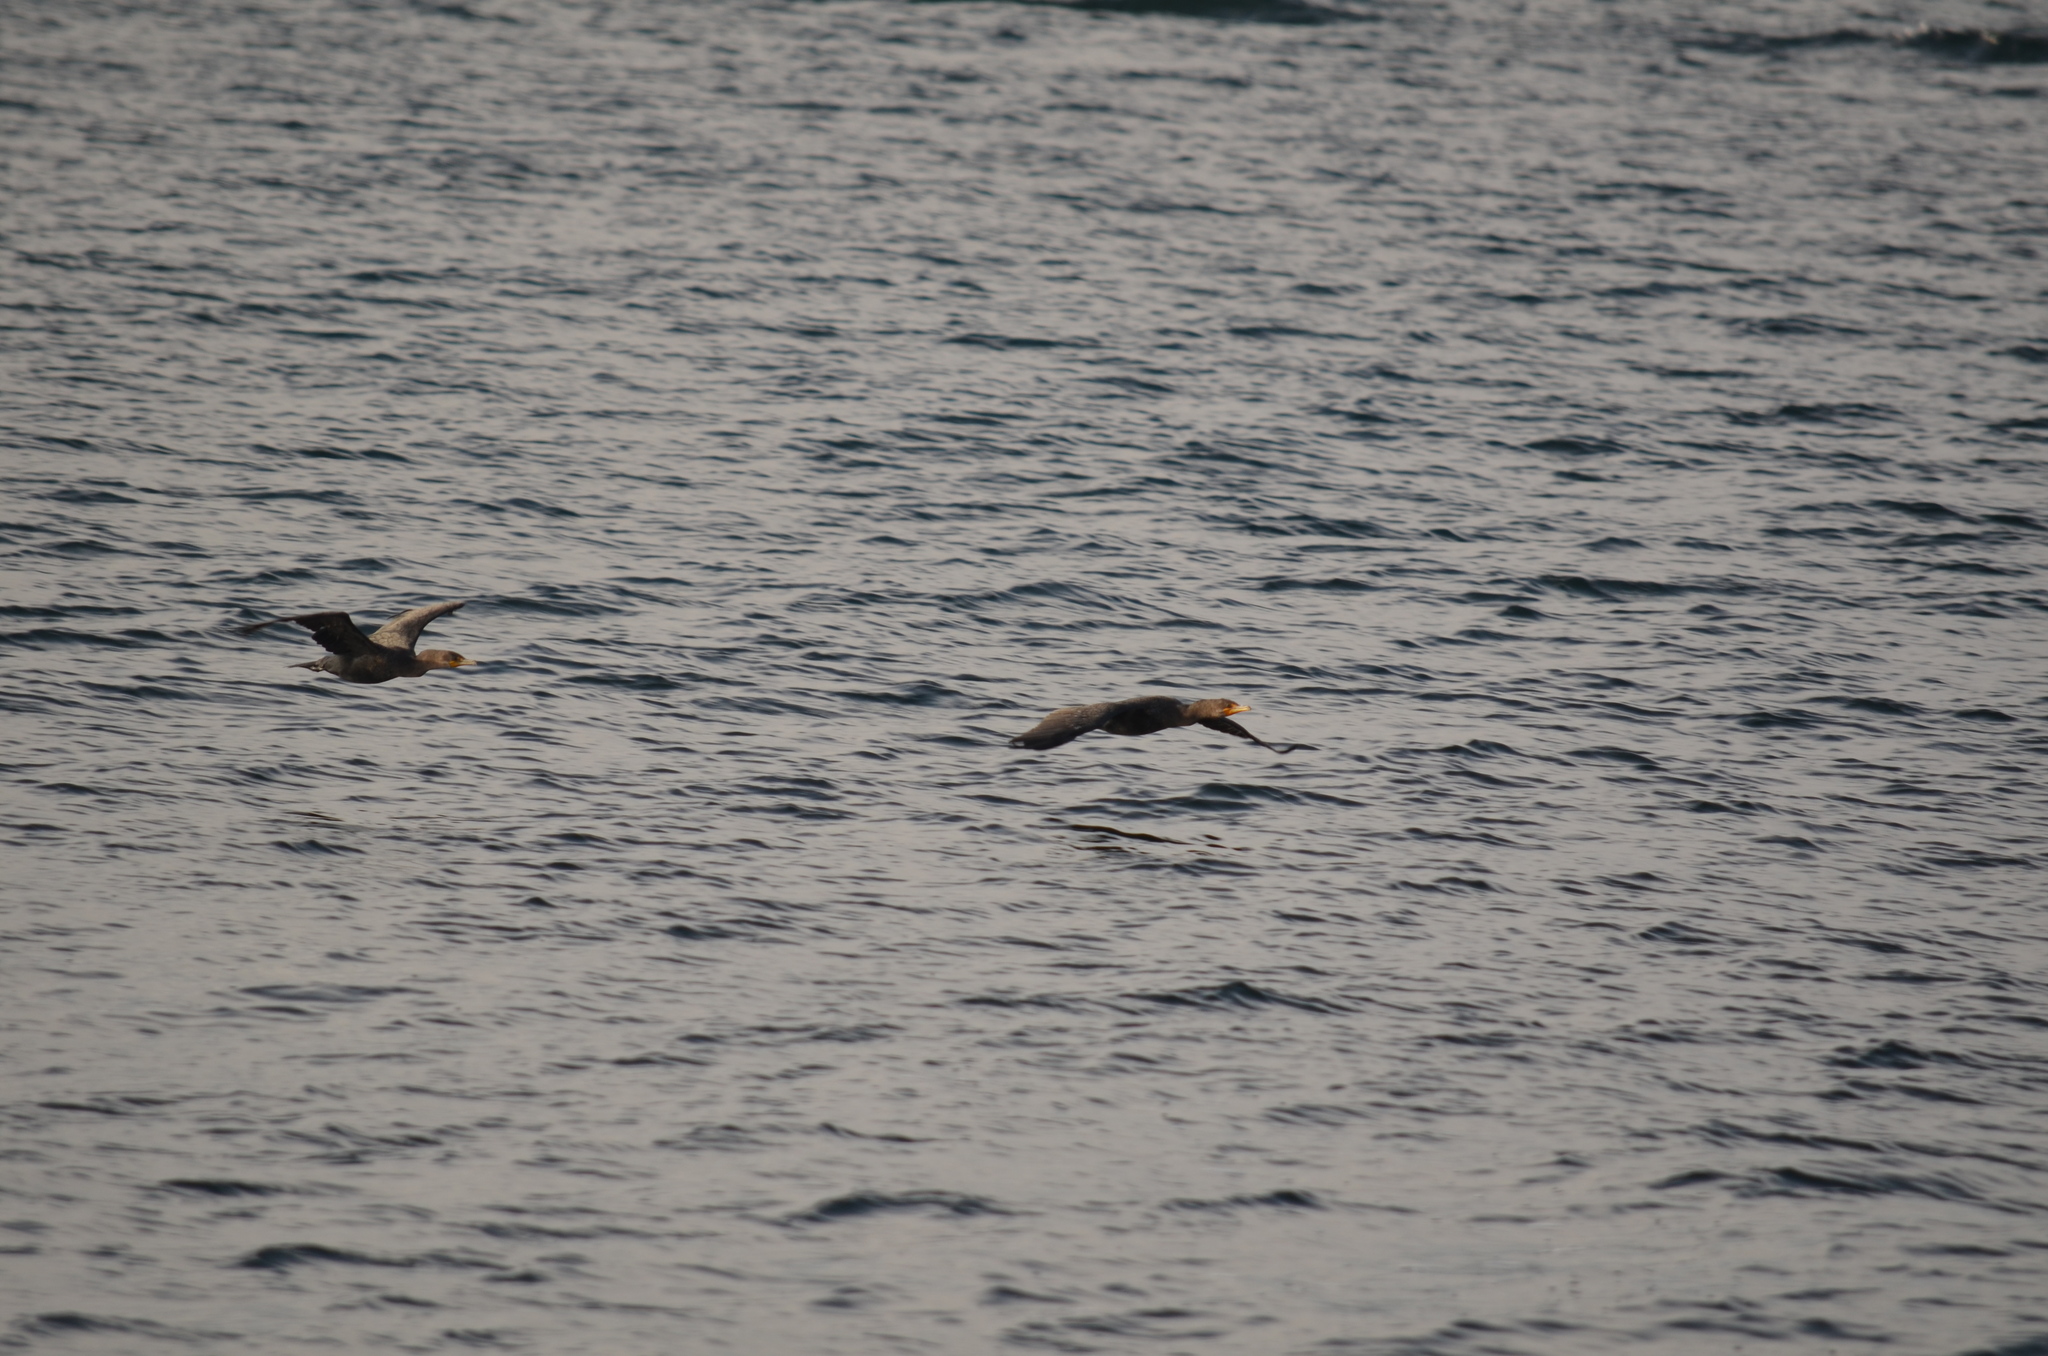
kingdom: Animalia
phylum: Chordata
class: Aves
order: Suliformes
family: Phalacrocoracidae
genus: Phalacrocorax
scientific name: Phalacrocorax auritus
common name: Double-crested cormorant
